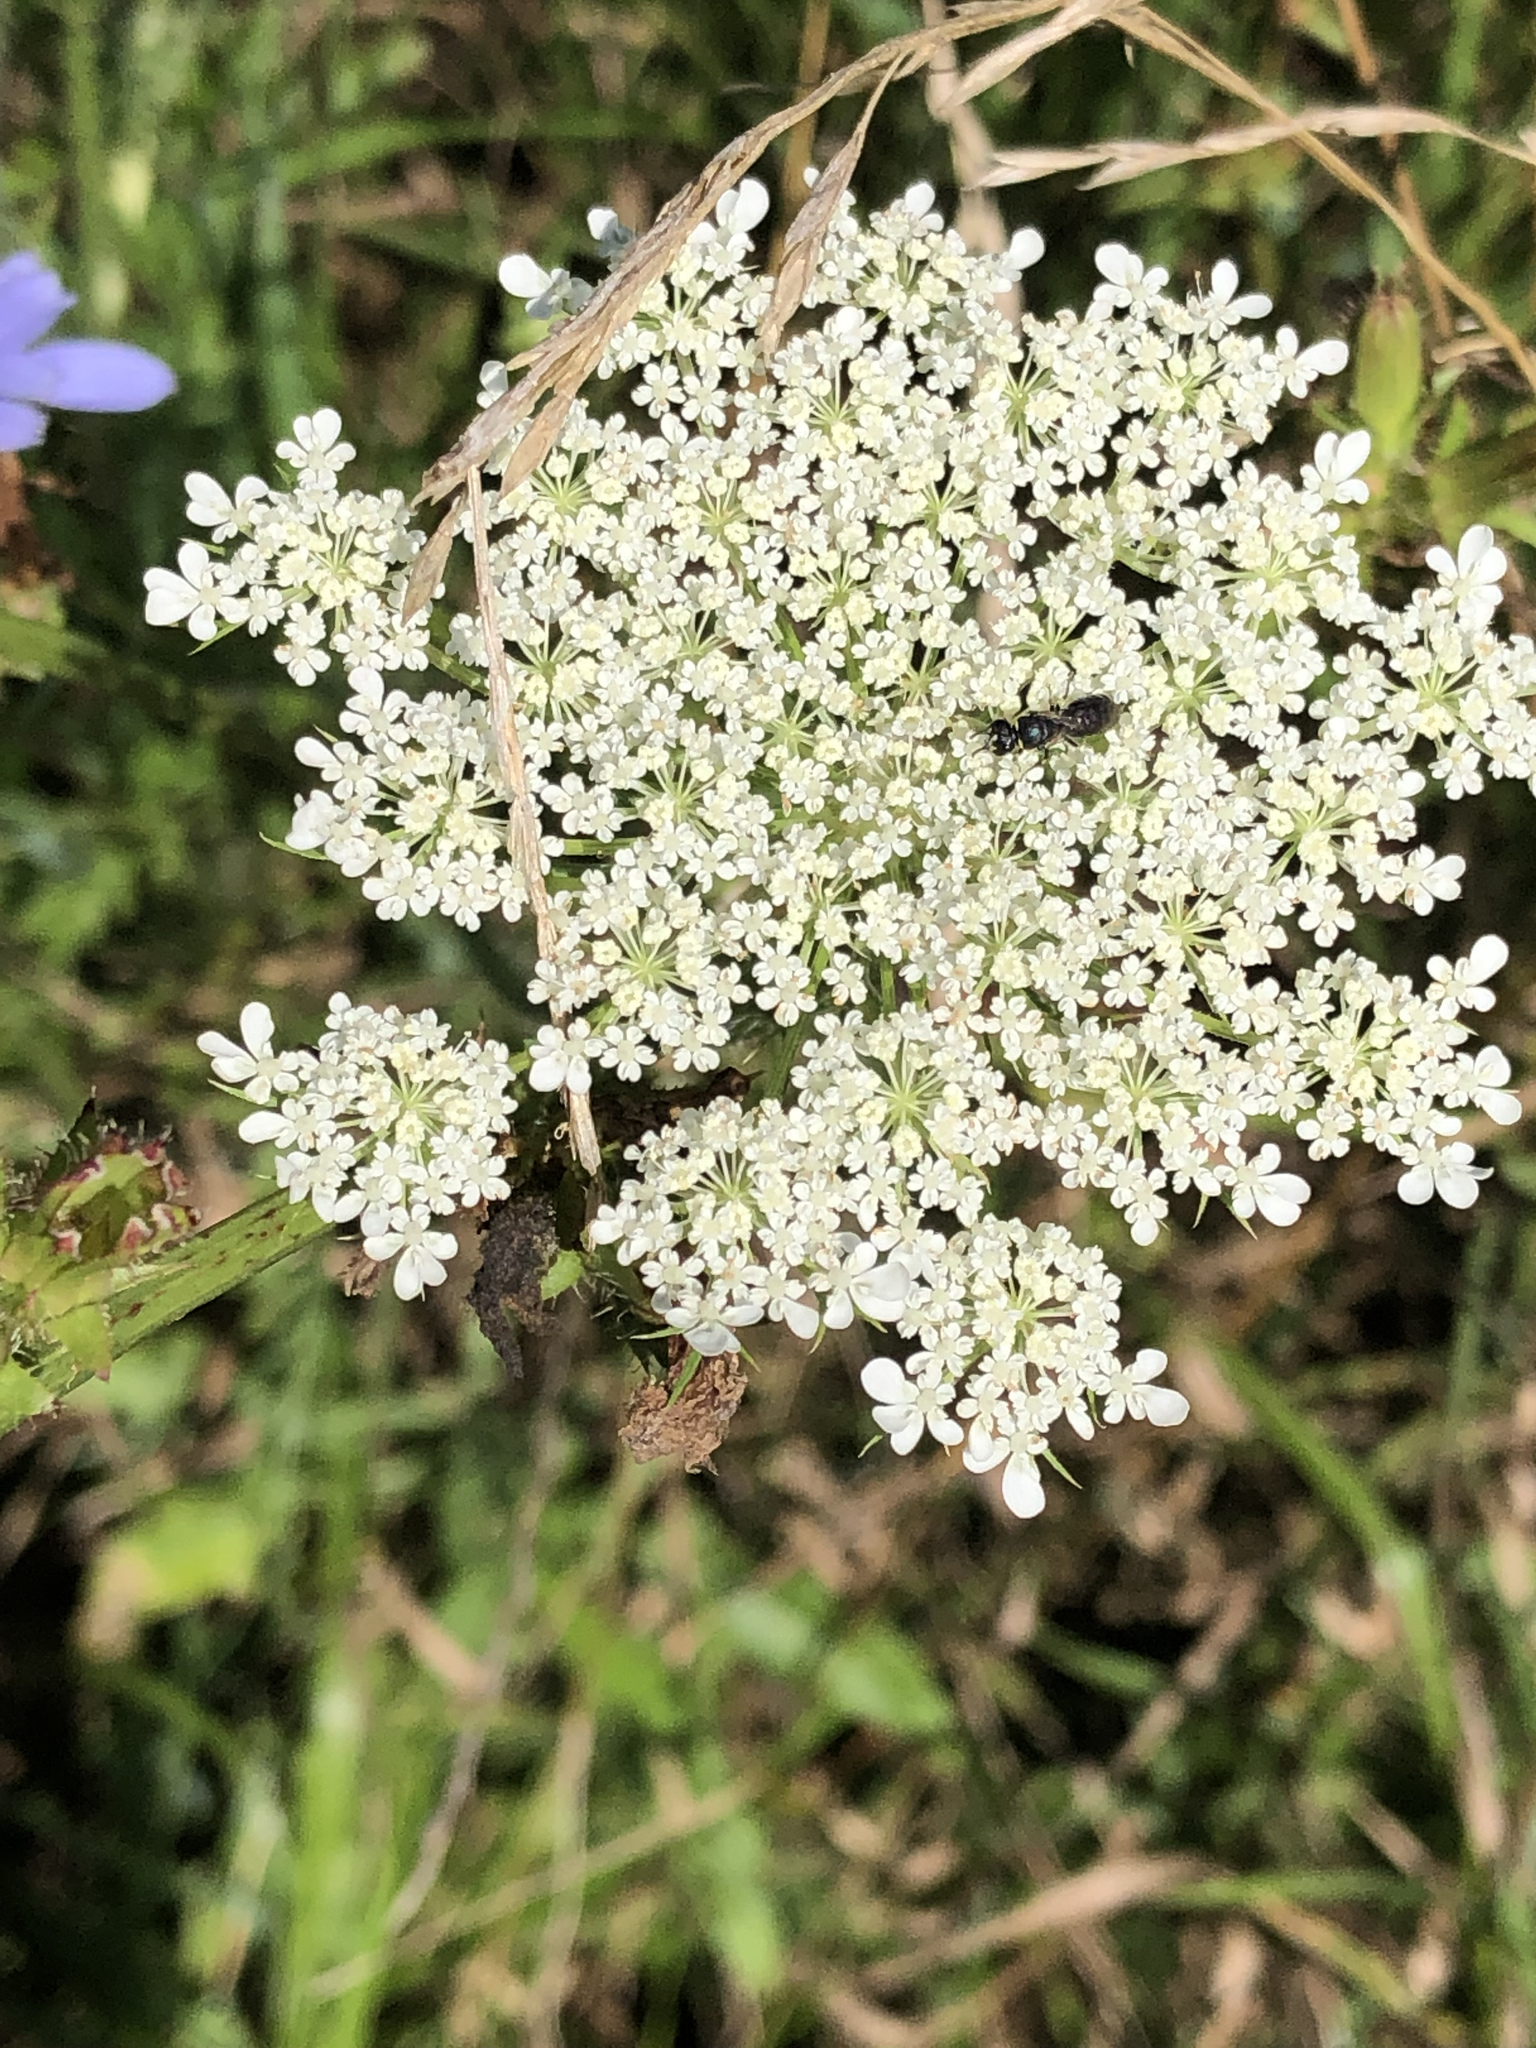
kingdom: Plantae
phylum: Tracheophyta
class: Magnoliopsida
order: Apiales
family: Apiaceae
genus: Daucus
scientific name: Daucus carota
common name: Wild carrot
